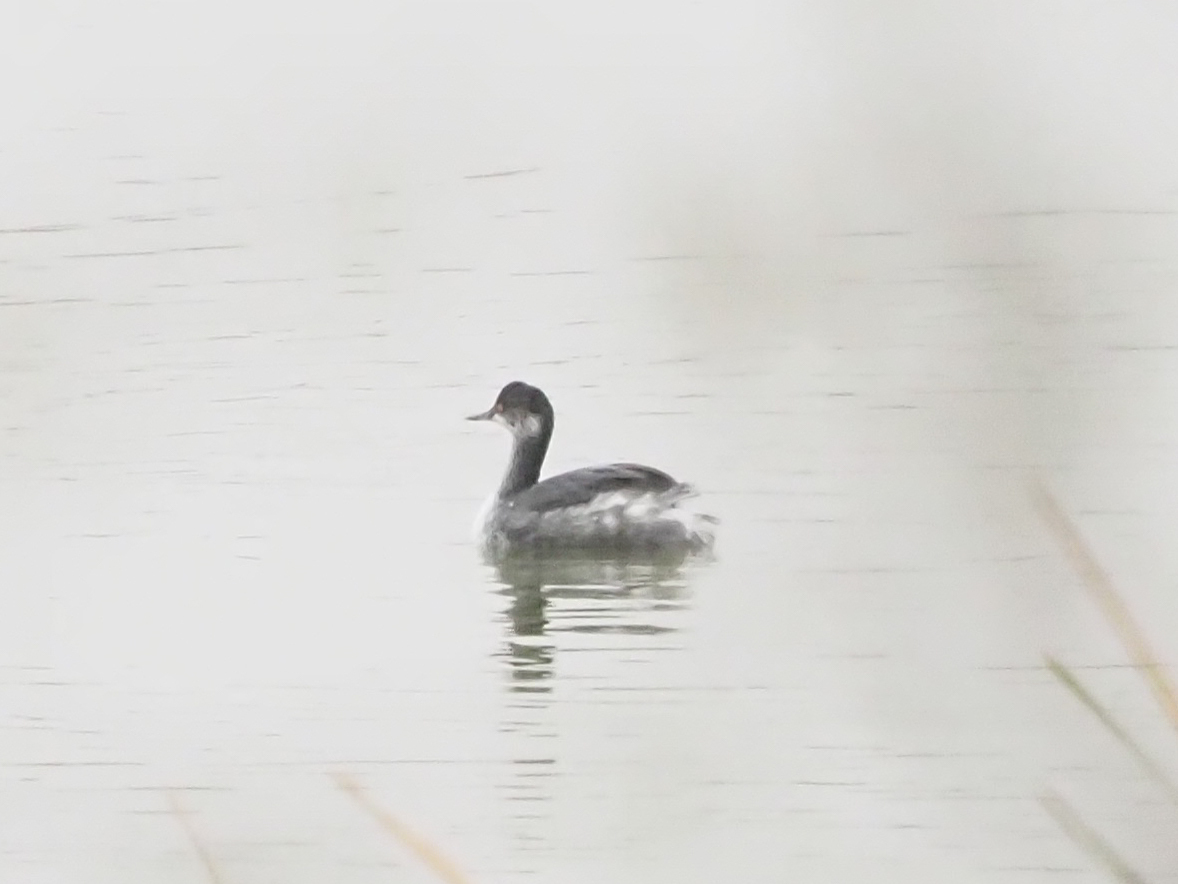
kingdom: Animalia
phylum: Chordata
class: Aves
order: Podicipediformes
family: Podicipedidae
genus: Podiceps
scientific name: Podiceps nigricollis
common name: Black-necked grebe
